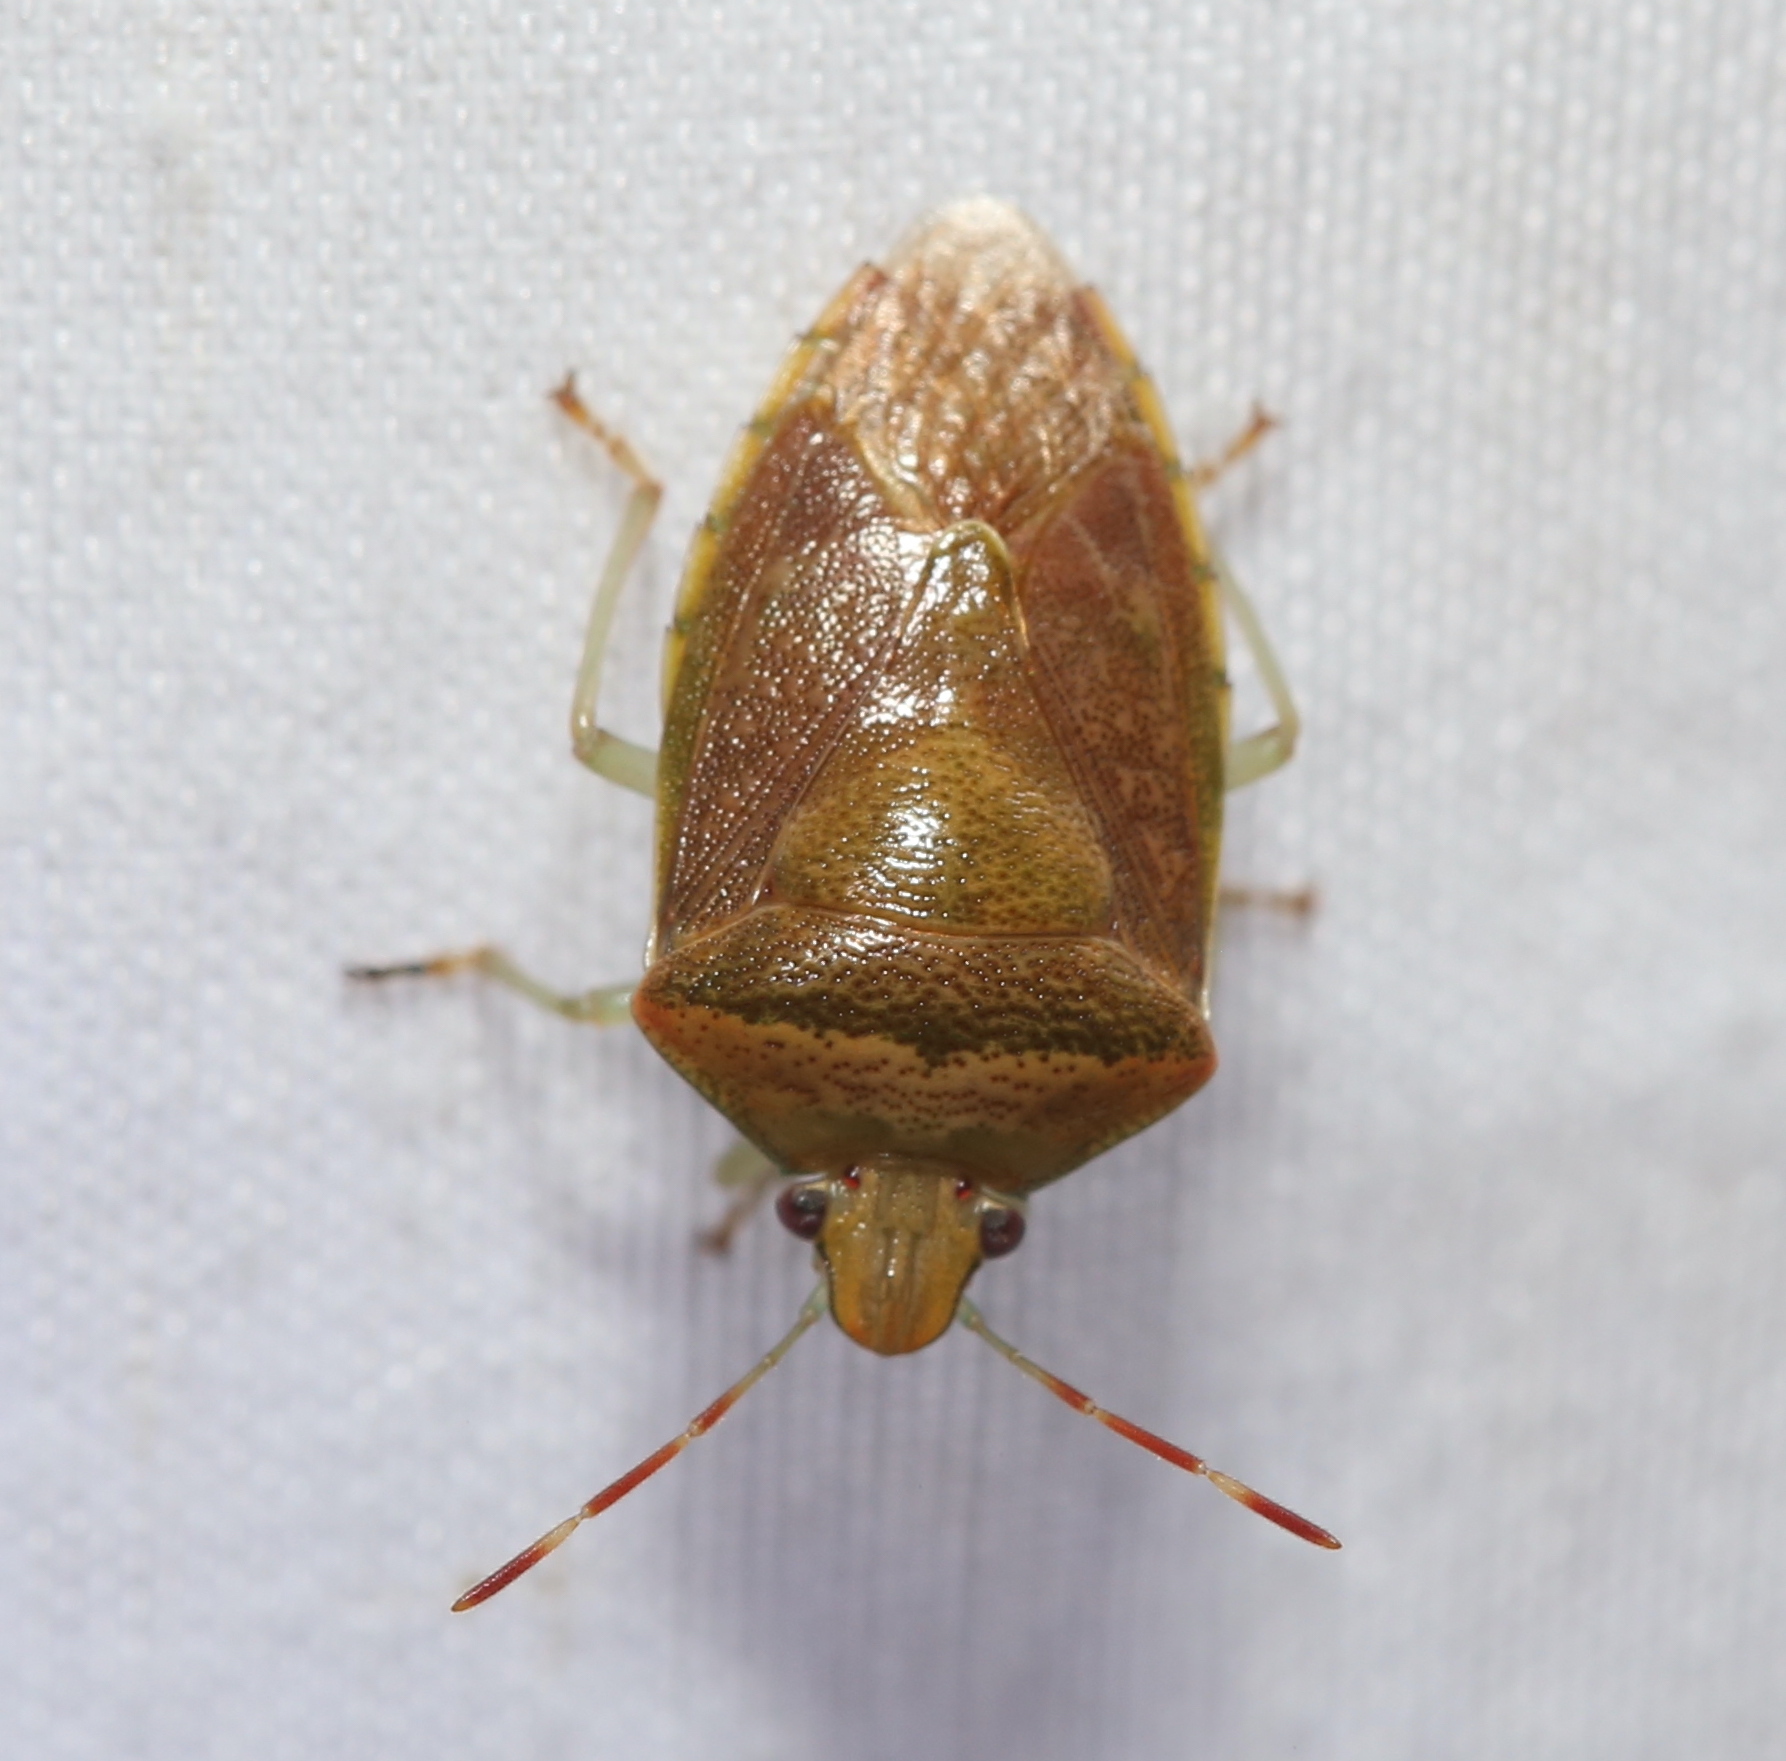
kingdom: Animalia
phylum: Arthropoda
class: Insecta
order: Hemiptera
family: Pentatomidae
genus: Banasa
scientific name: Banasa calva
